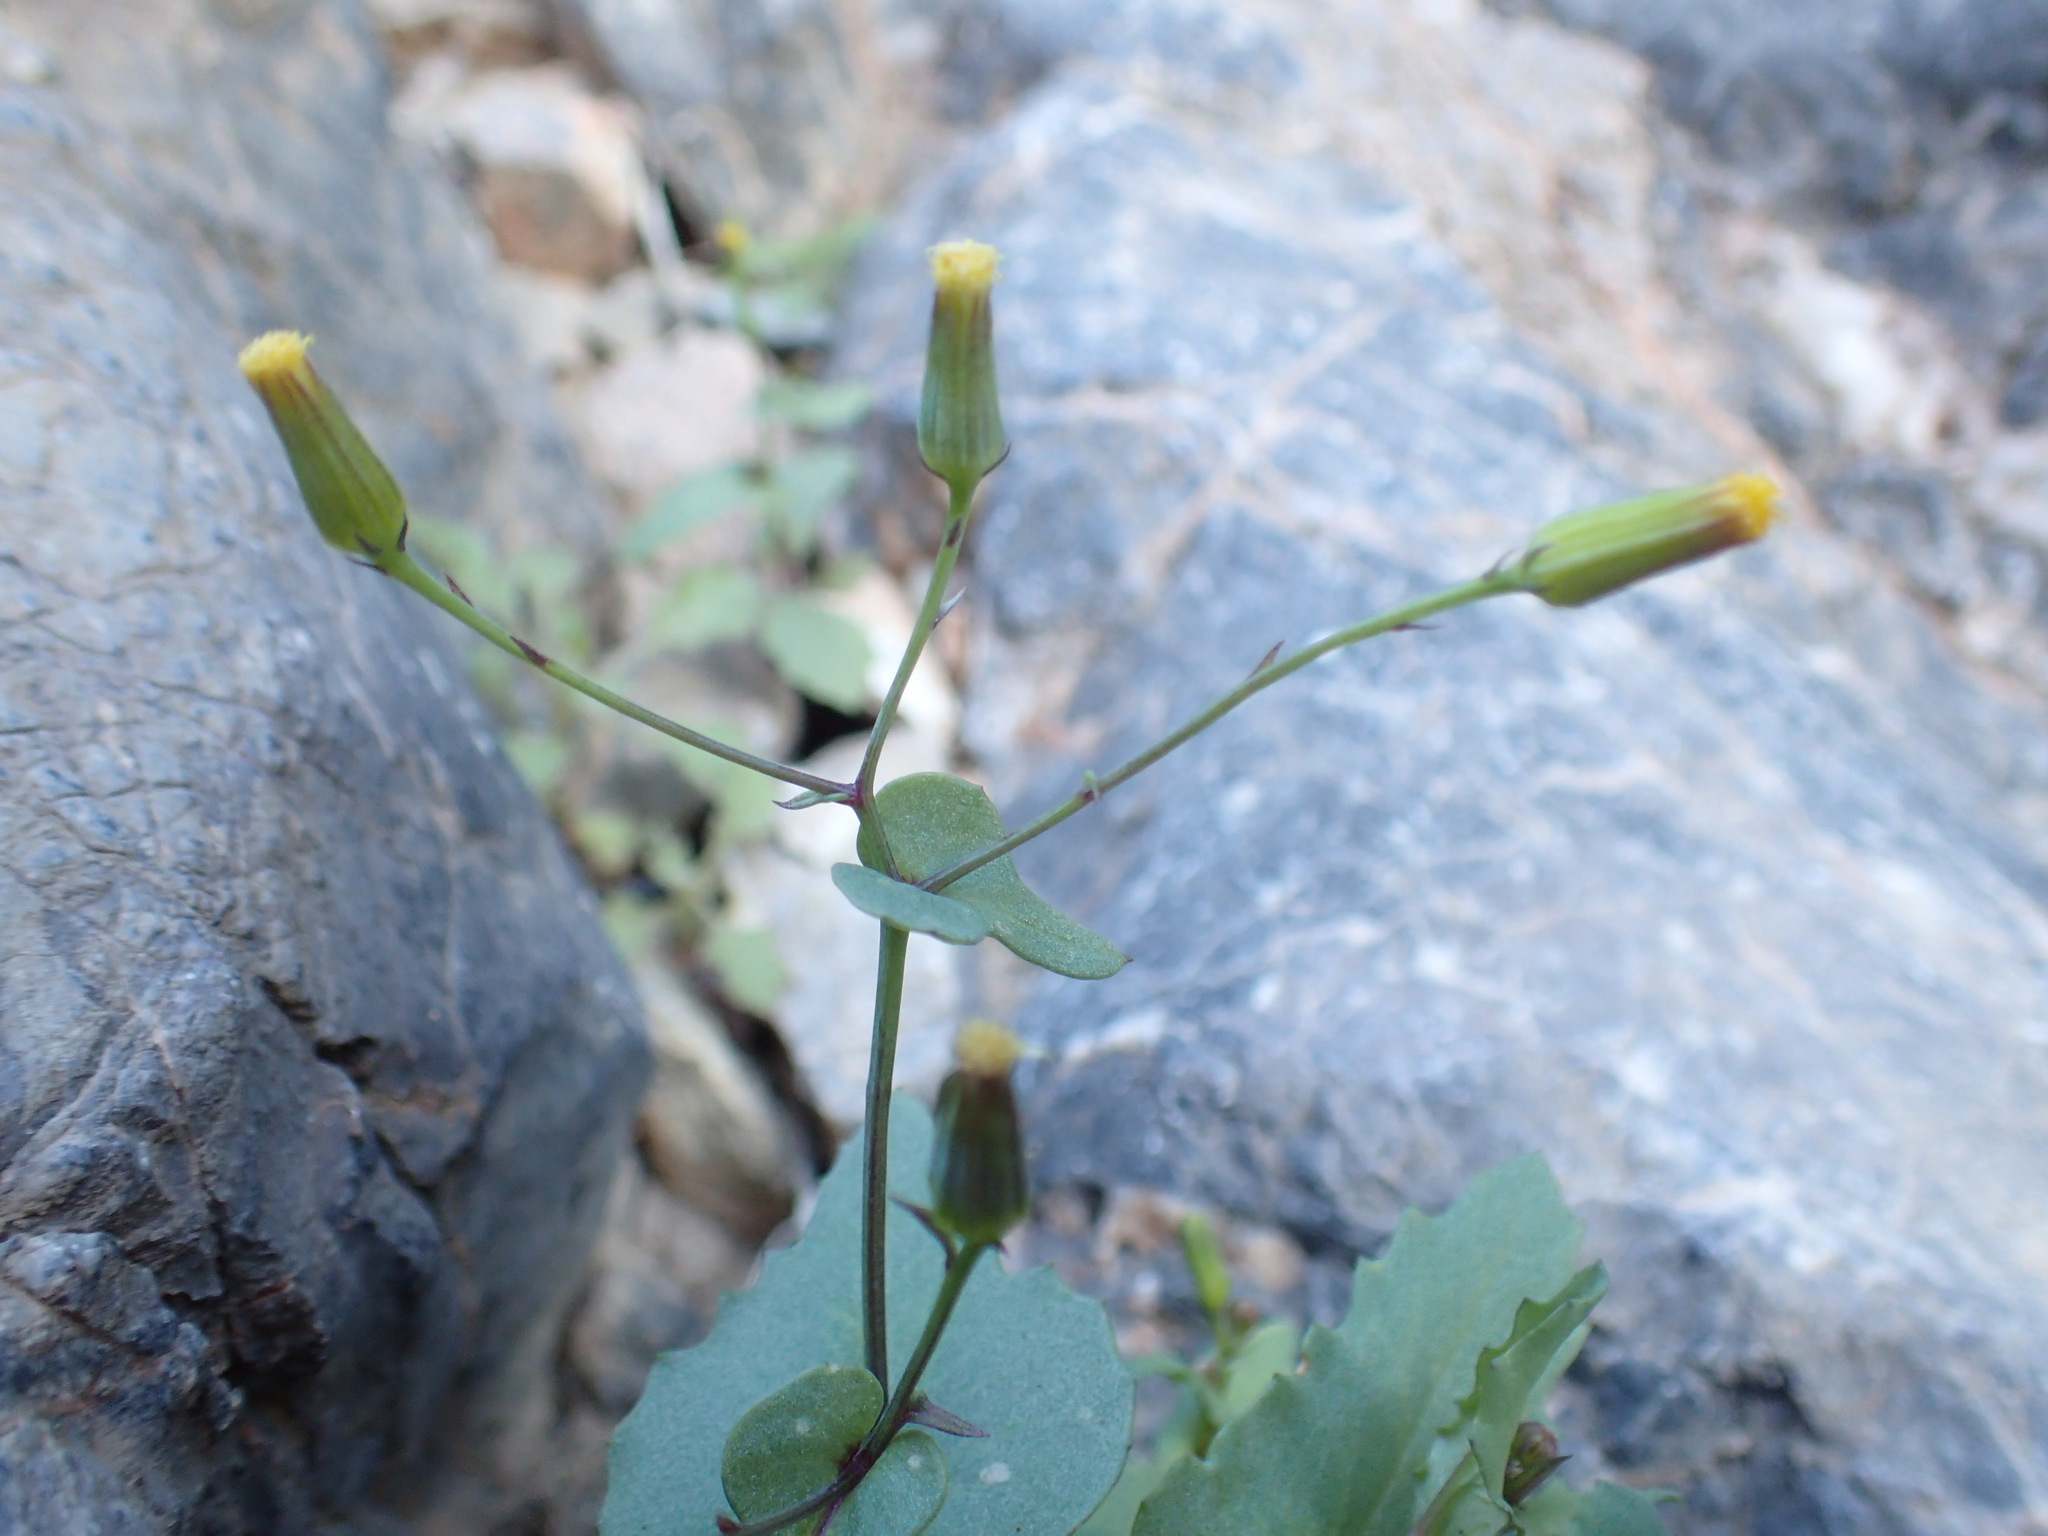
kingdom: Plantae
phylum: Tracheophyta
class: Magnoliopsida
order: Asterales
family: Asteraceae
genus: Senecio
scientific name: Senecio mohavensis
